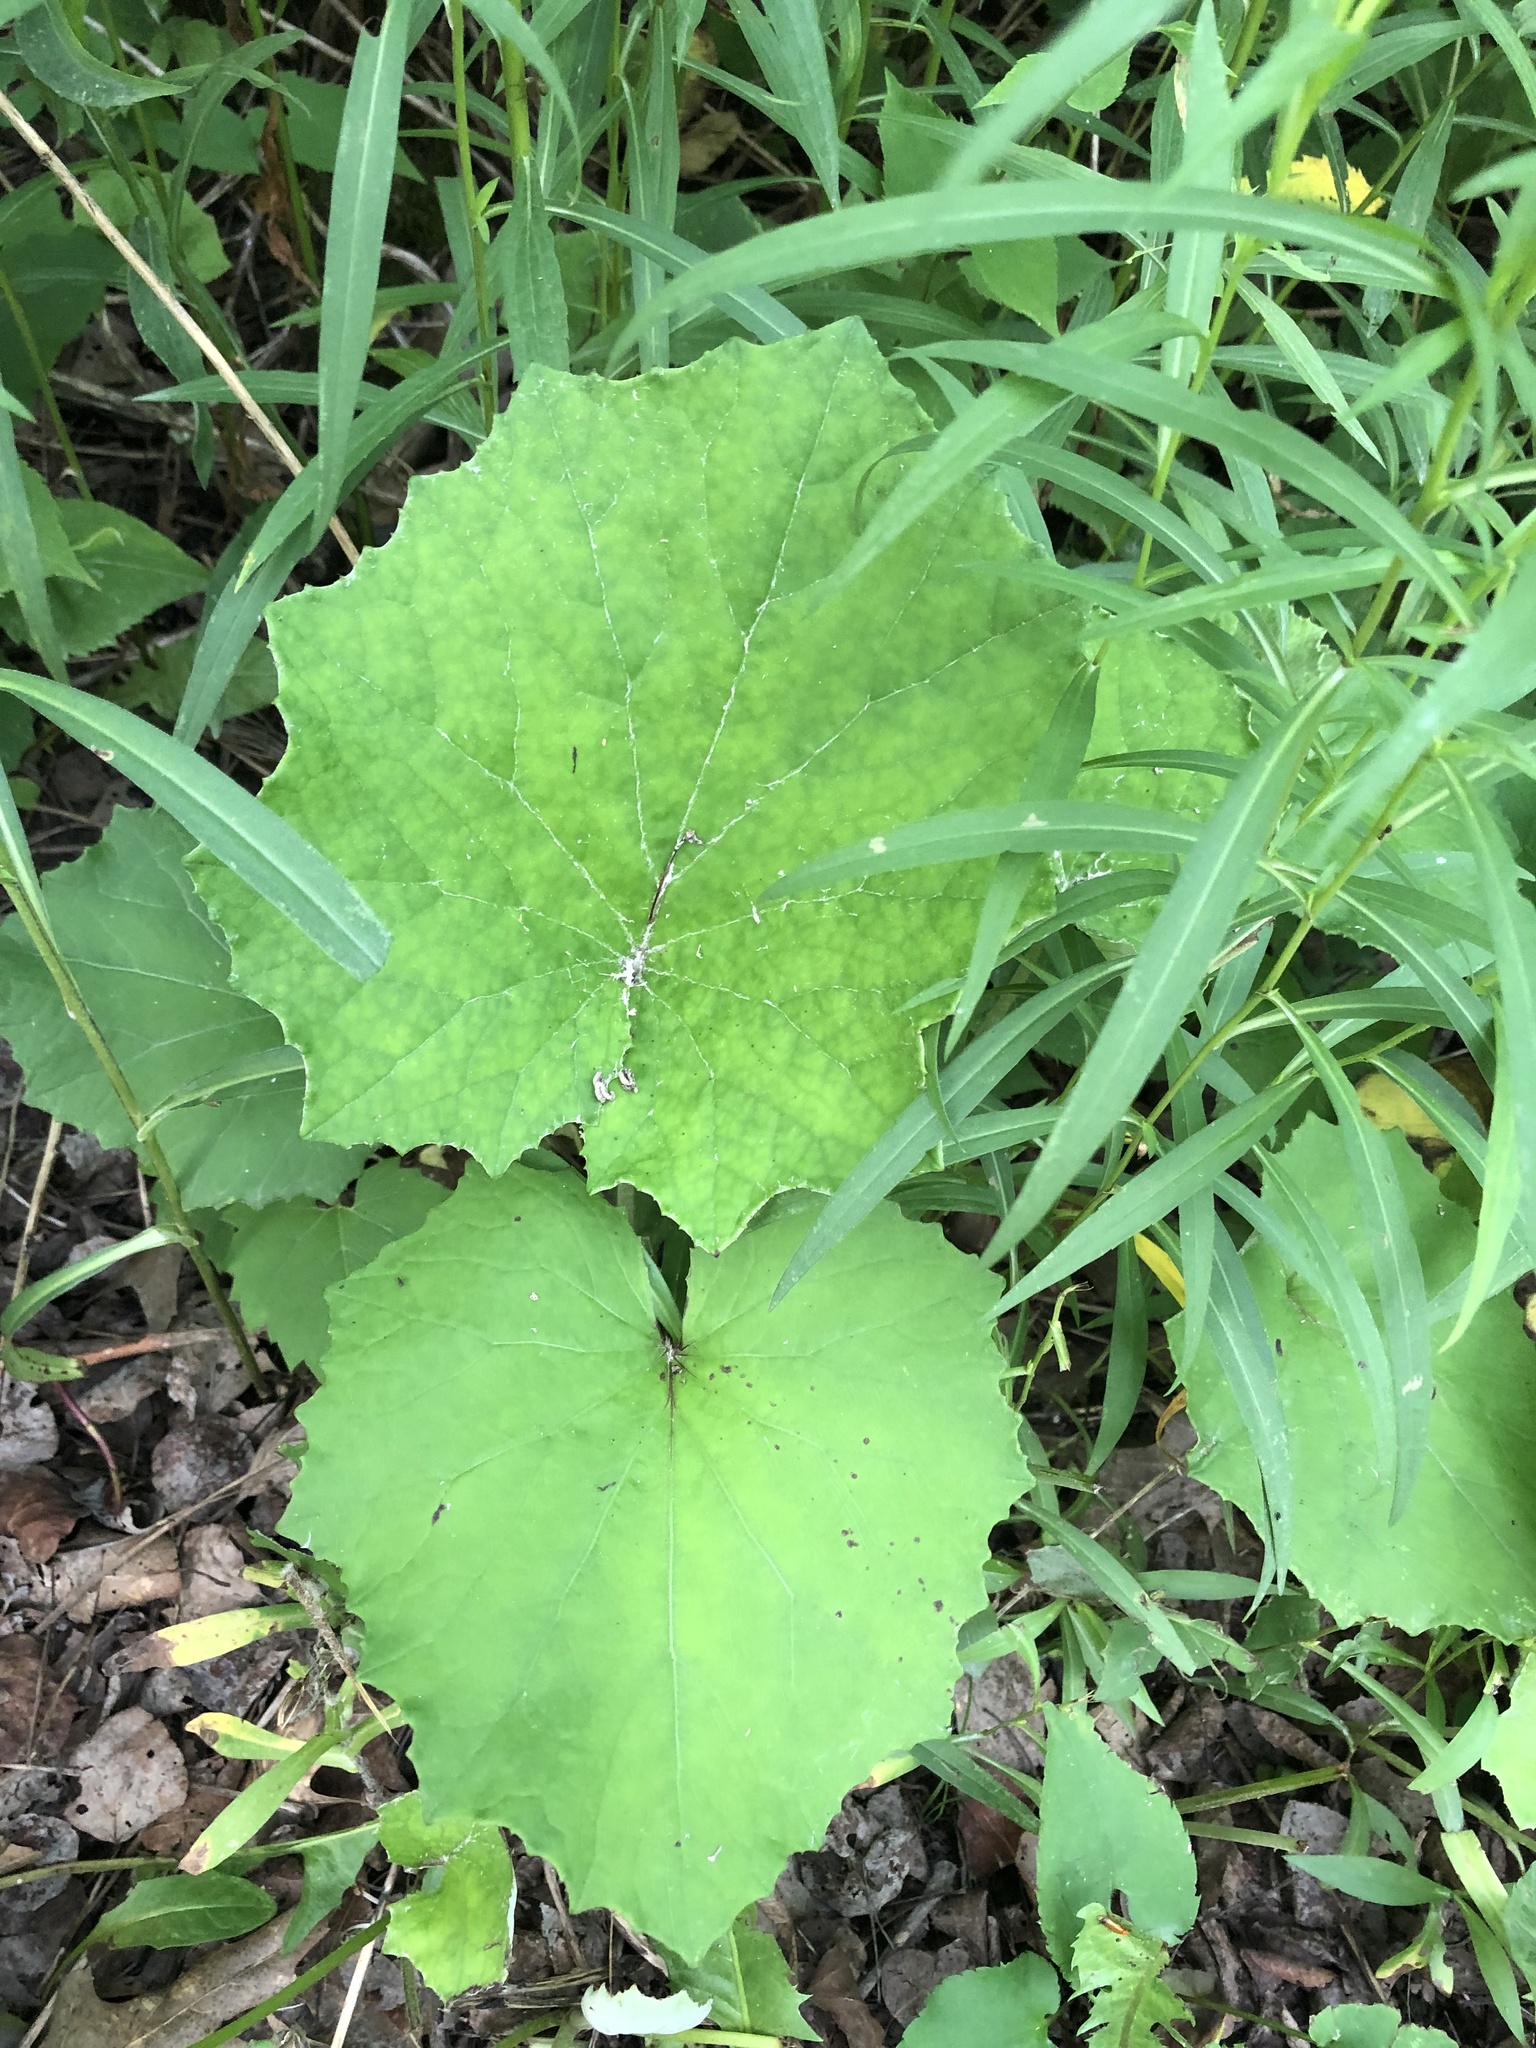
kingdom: Plantae
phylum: Tracheophyta
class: Magnoliopsida
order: Asterales
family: Asteraceae
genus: Tussilago
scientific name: Tussilago farfara
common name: Coltsfoot
